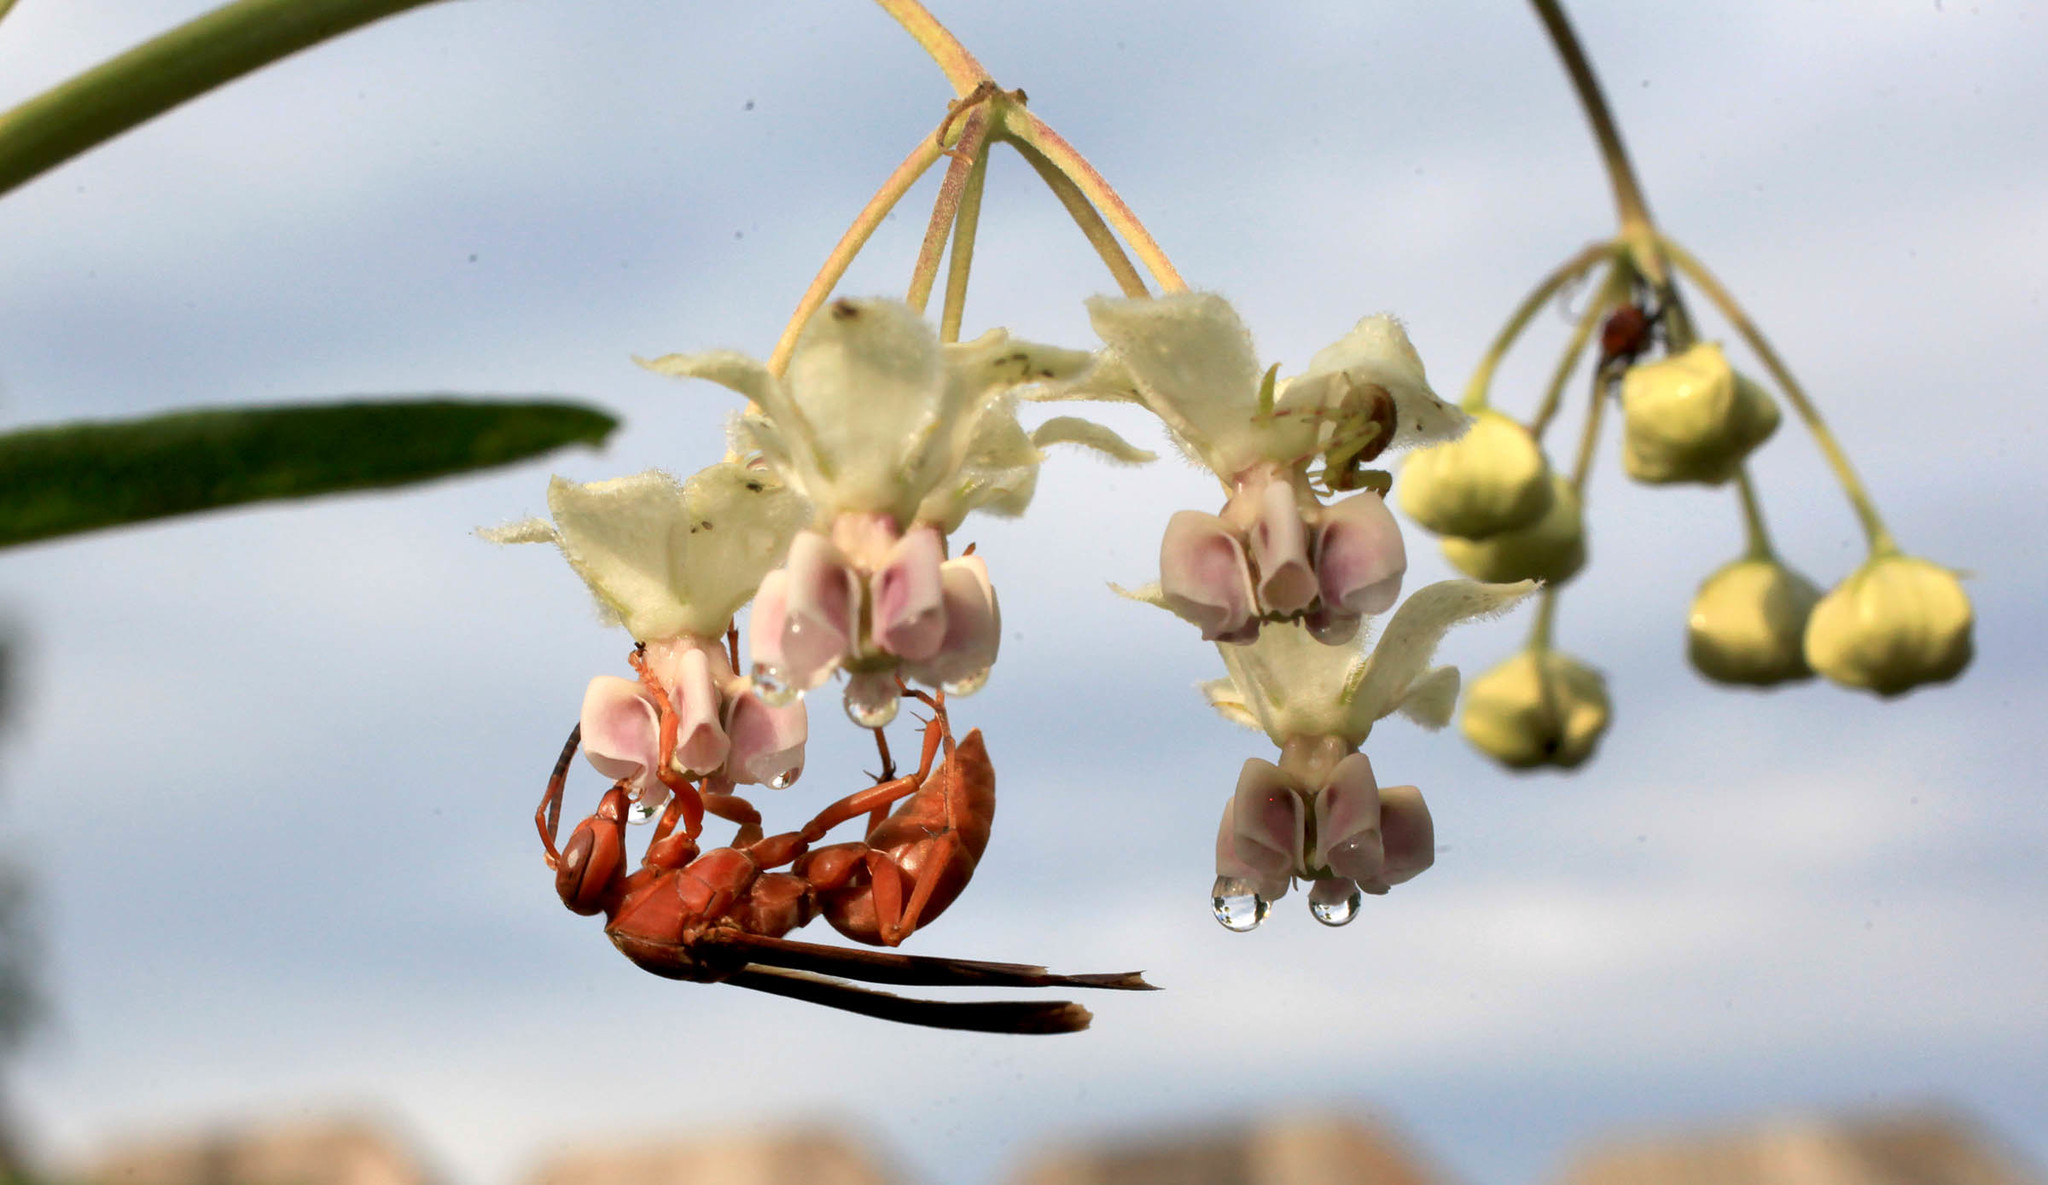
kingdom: Animalia
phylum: Arthropoda
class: Insecta
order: Hymenoptera
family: Vespidae
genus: Fuscopolistes
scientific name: Fuscopolistes
